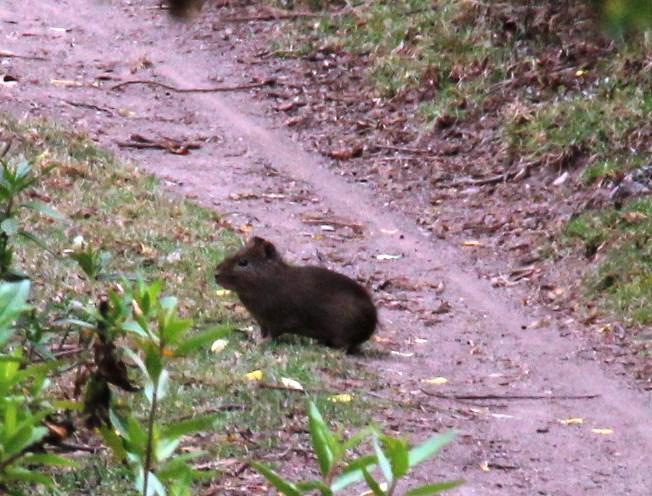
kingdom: Animalia
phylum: Chordata
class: Mammalia
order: Rodentia
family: Caviidae
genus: Cavia
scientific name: Cavia tschudii
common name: Montane guinea pig
